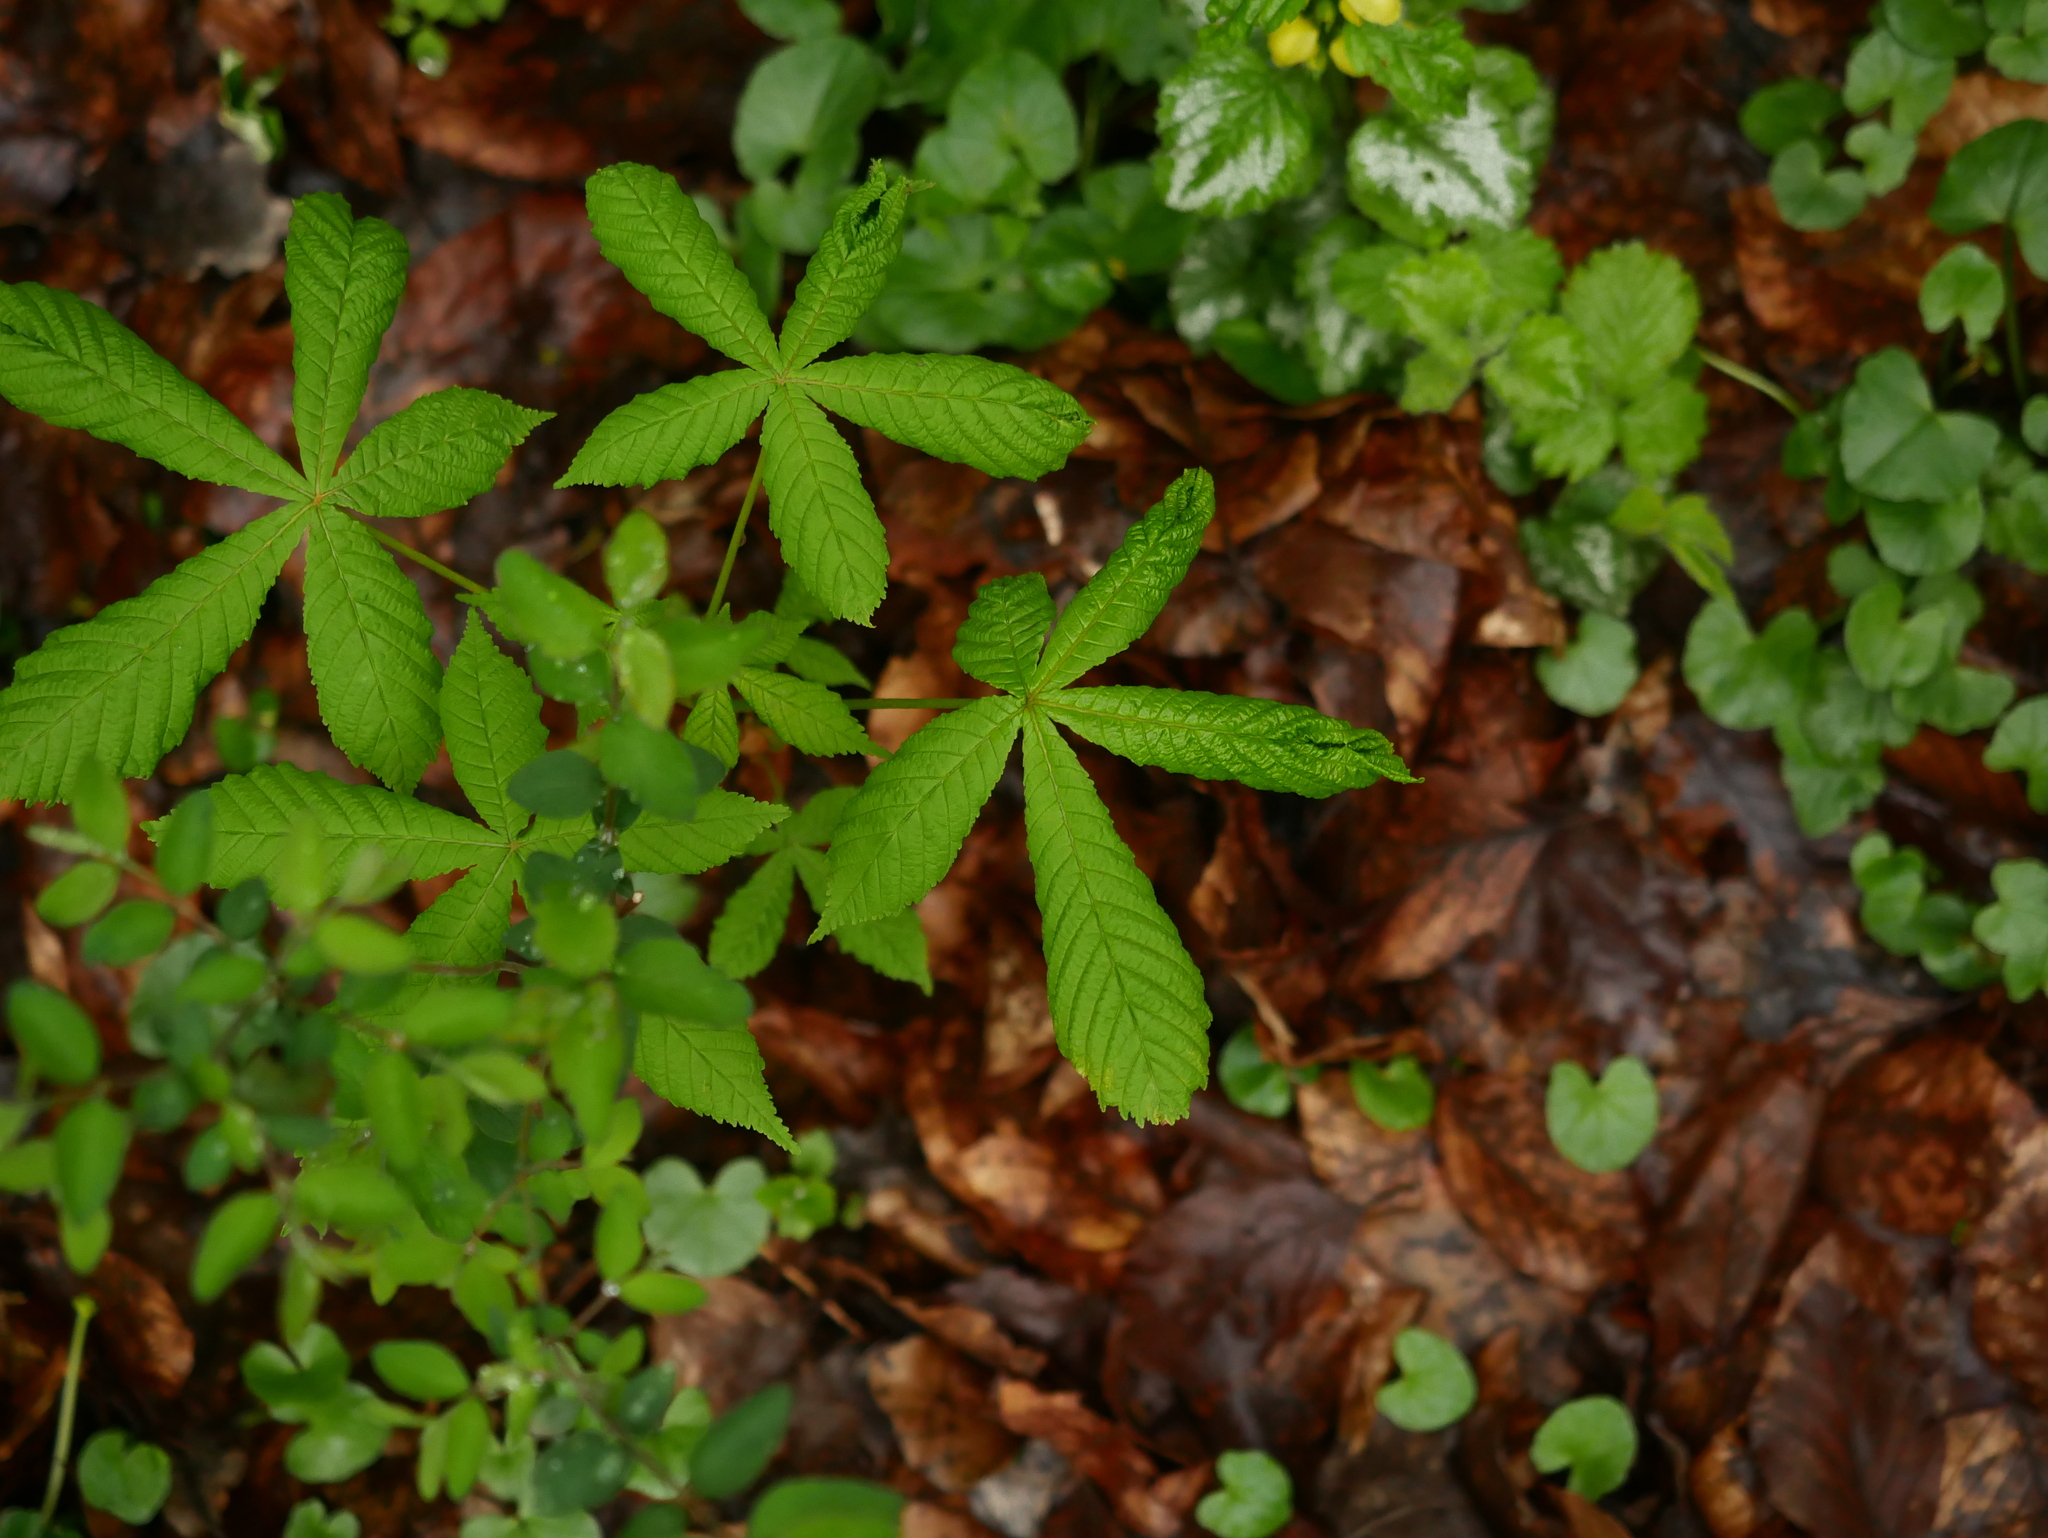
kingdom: Plantae
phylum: Tracheophyta
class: Magnoliopsida
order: Sapindales
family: Sapindaceae
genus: Aesculus
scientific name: Aesculus hippocastanum
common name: Horse-chestnut
